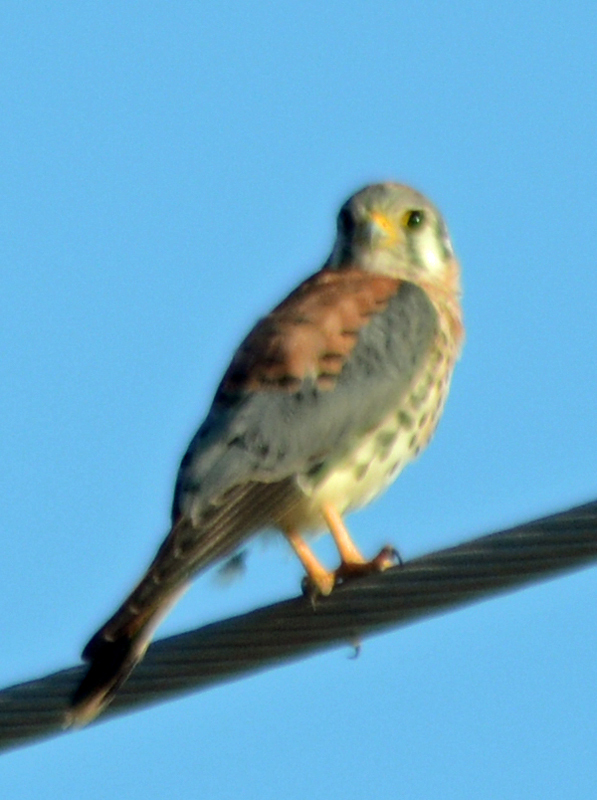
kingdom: Animalia
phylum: Chordata
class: Aves
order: Falconiformes
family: Falconidae
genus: Falco
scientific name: Falco sparverius
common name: American kestrel
